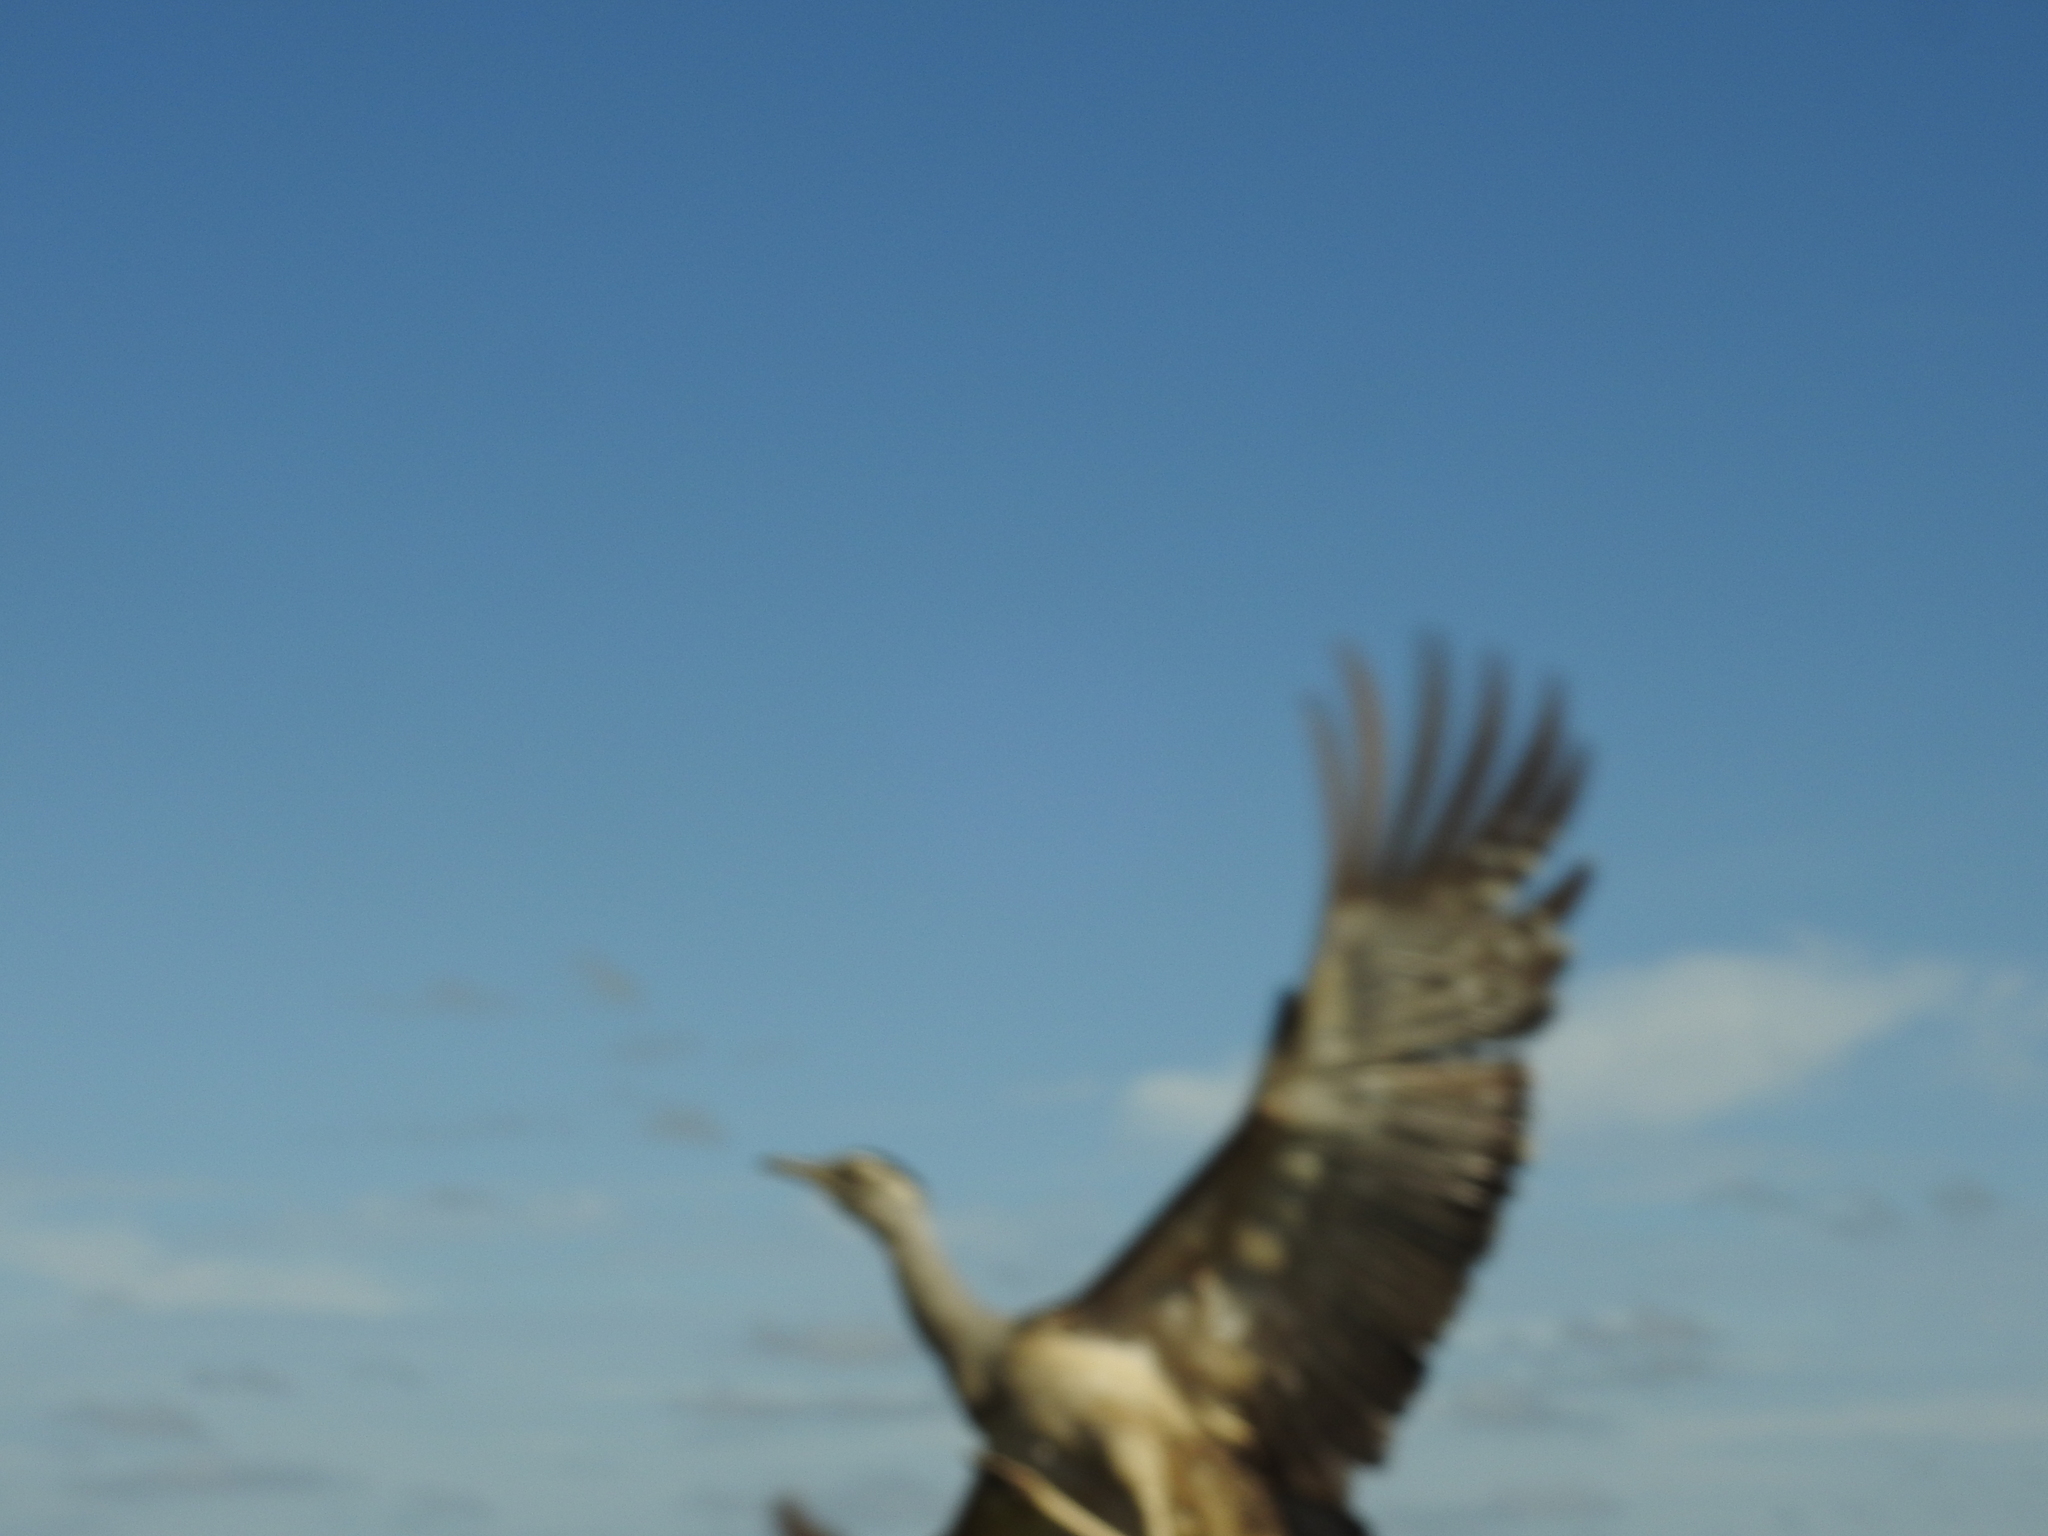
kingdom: Animalia
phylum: Chordata
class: Aves
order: Otidiformes
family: Otididae
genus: Ardeotis
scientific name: Ardeotis australis
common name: Australian bustard
